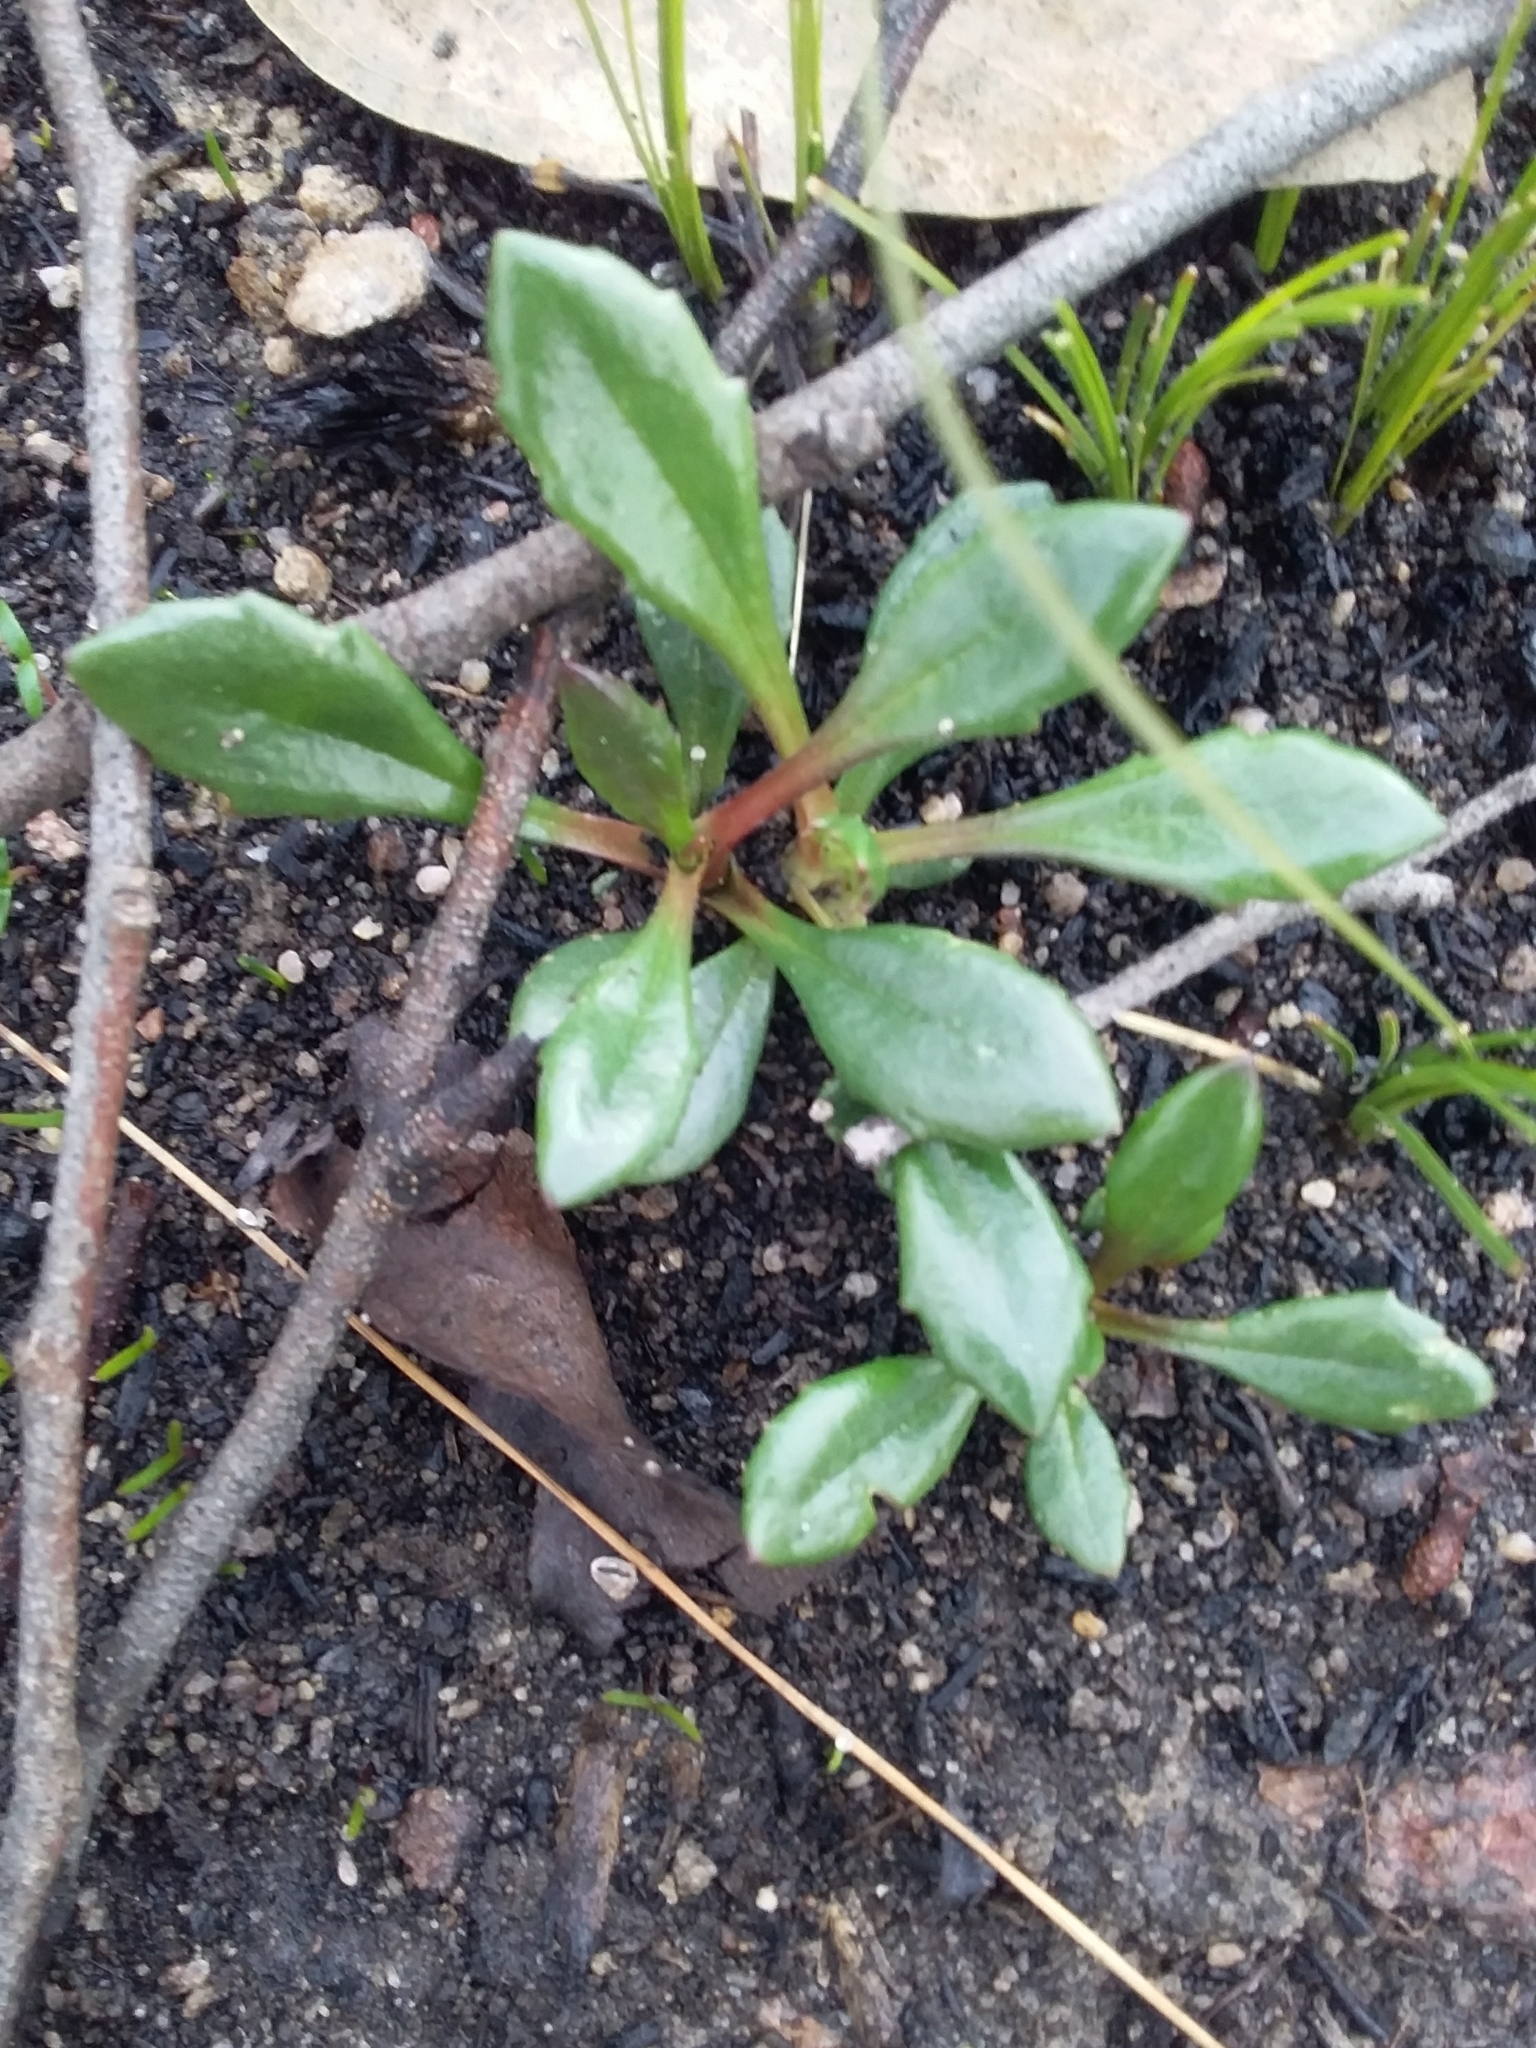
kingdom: Plantae
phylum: Tracheophyta
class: Magnoliopsida
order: Asterales
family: Goodeniaceae
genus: Goodenia
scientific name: Goodenia blackiana
